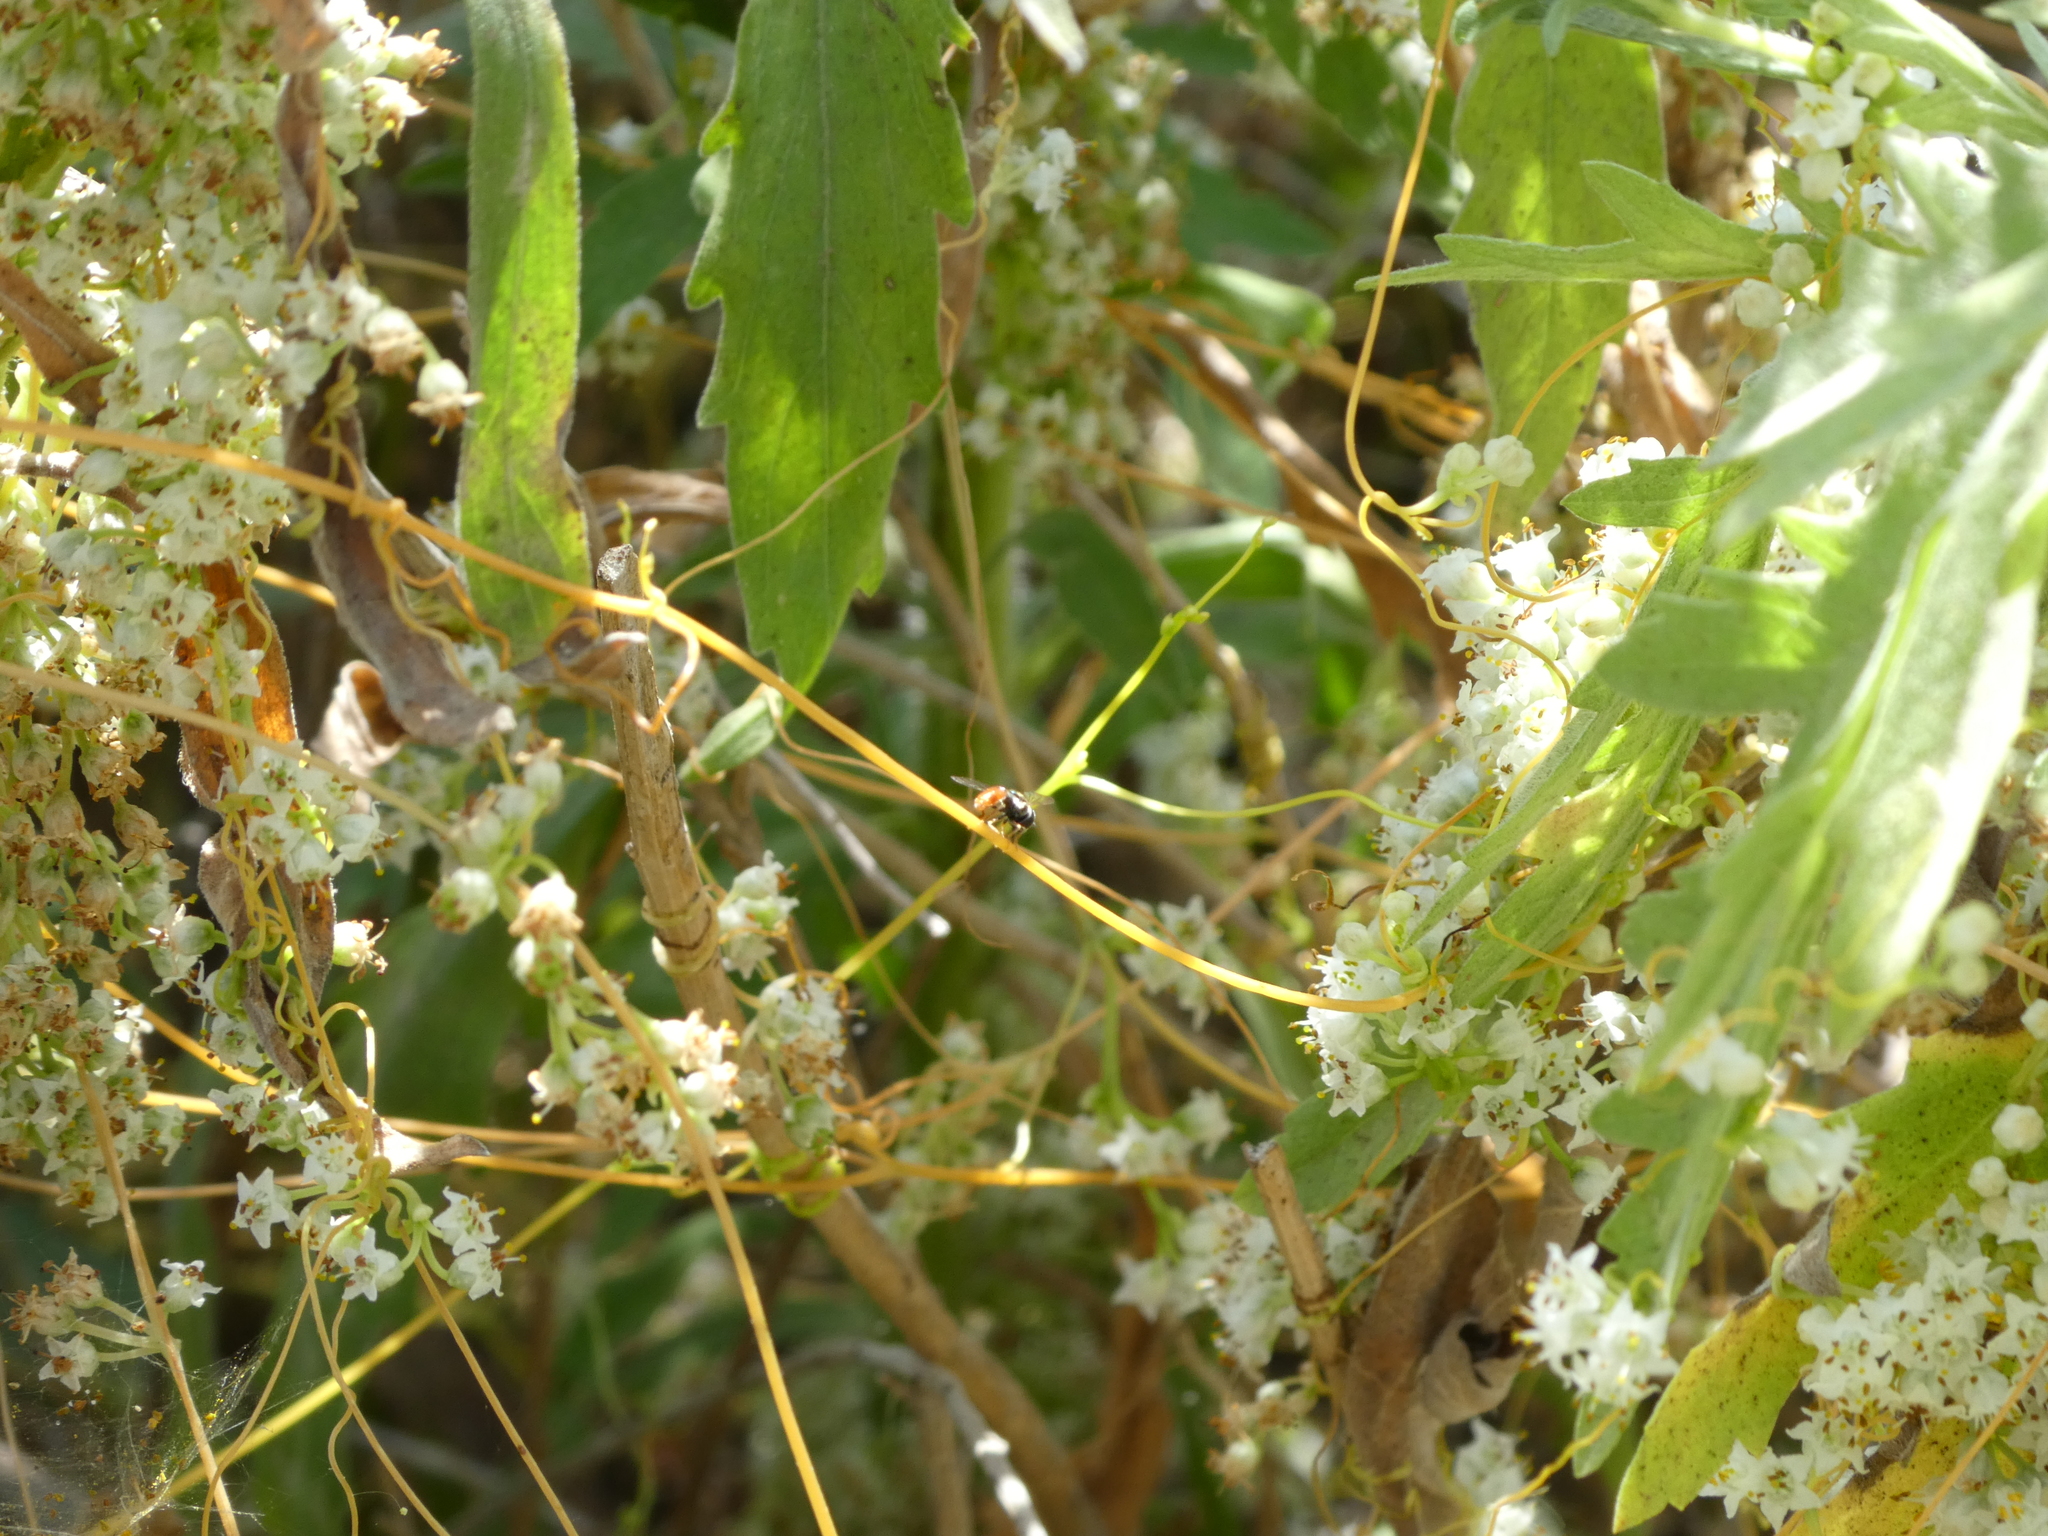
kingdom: Animalia
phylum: Arthropoda
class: Insecta
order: Diptera
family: Syrphidae
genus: Paragus
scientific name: Paragus haemorrhous
